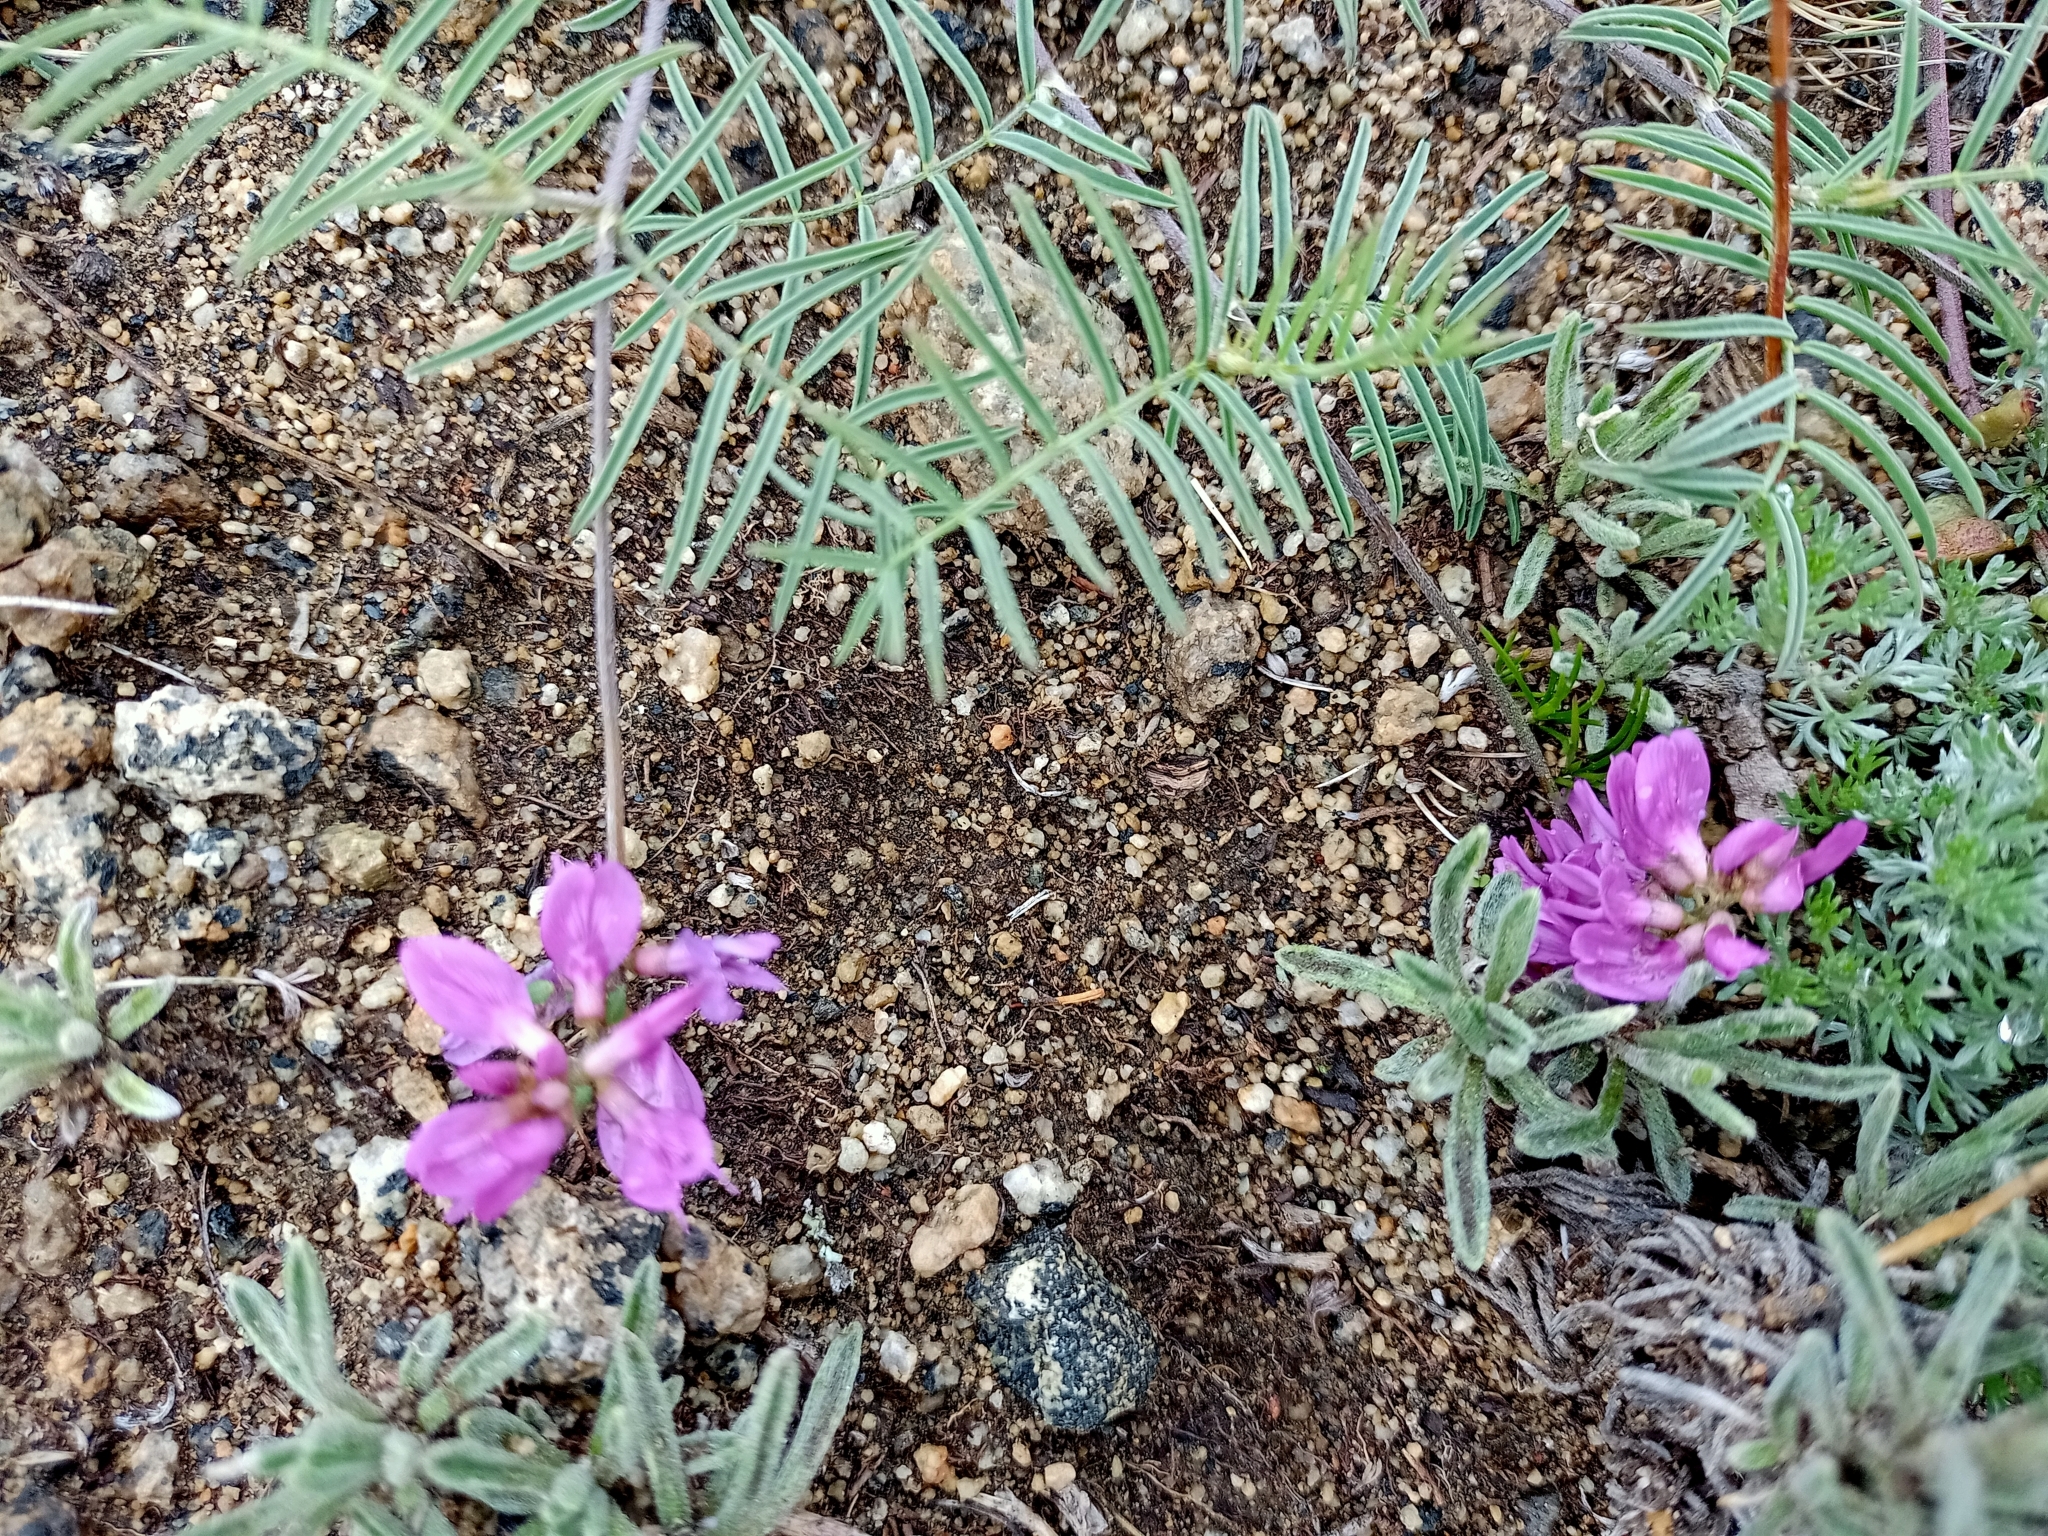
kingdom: Plantae
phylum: Tracheophyta
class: Magnoliopsida
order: Fabales
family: Fabaceae
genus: Astragalus
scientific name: Astragalus versicolor
